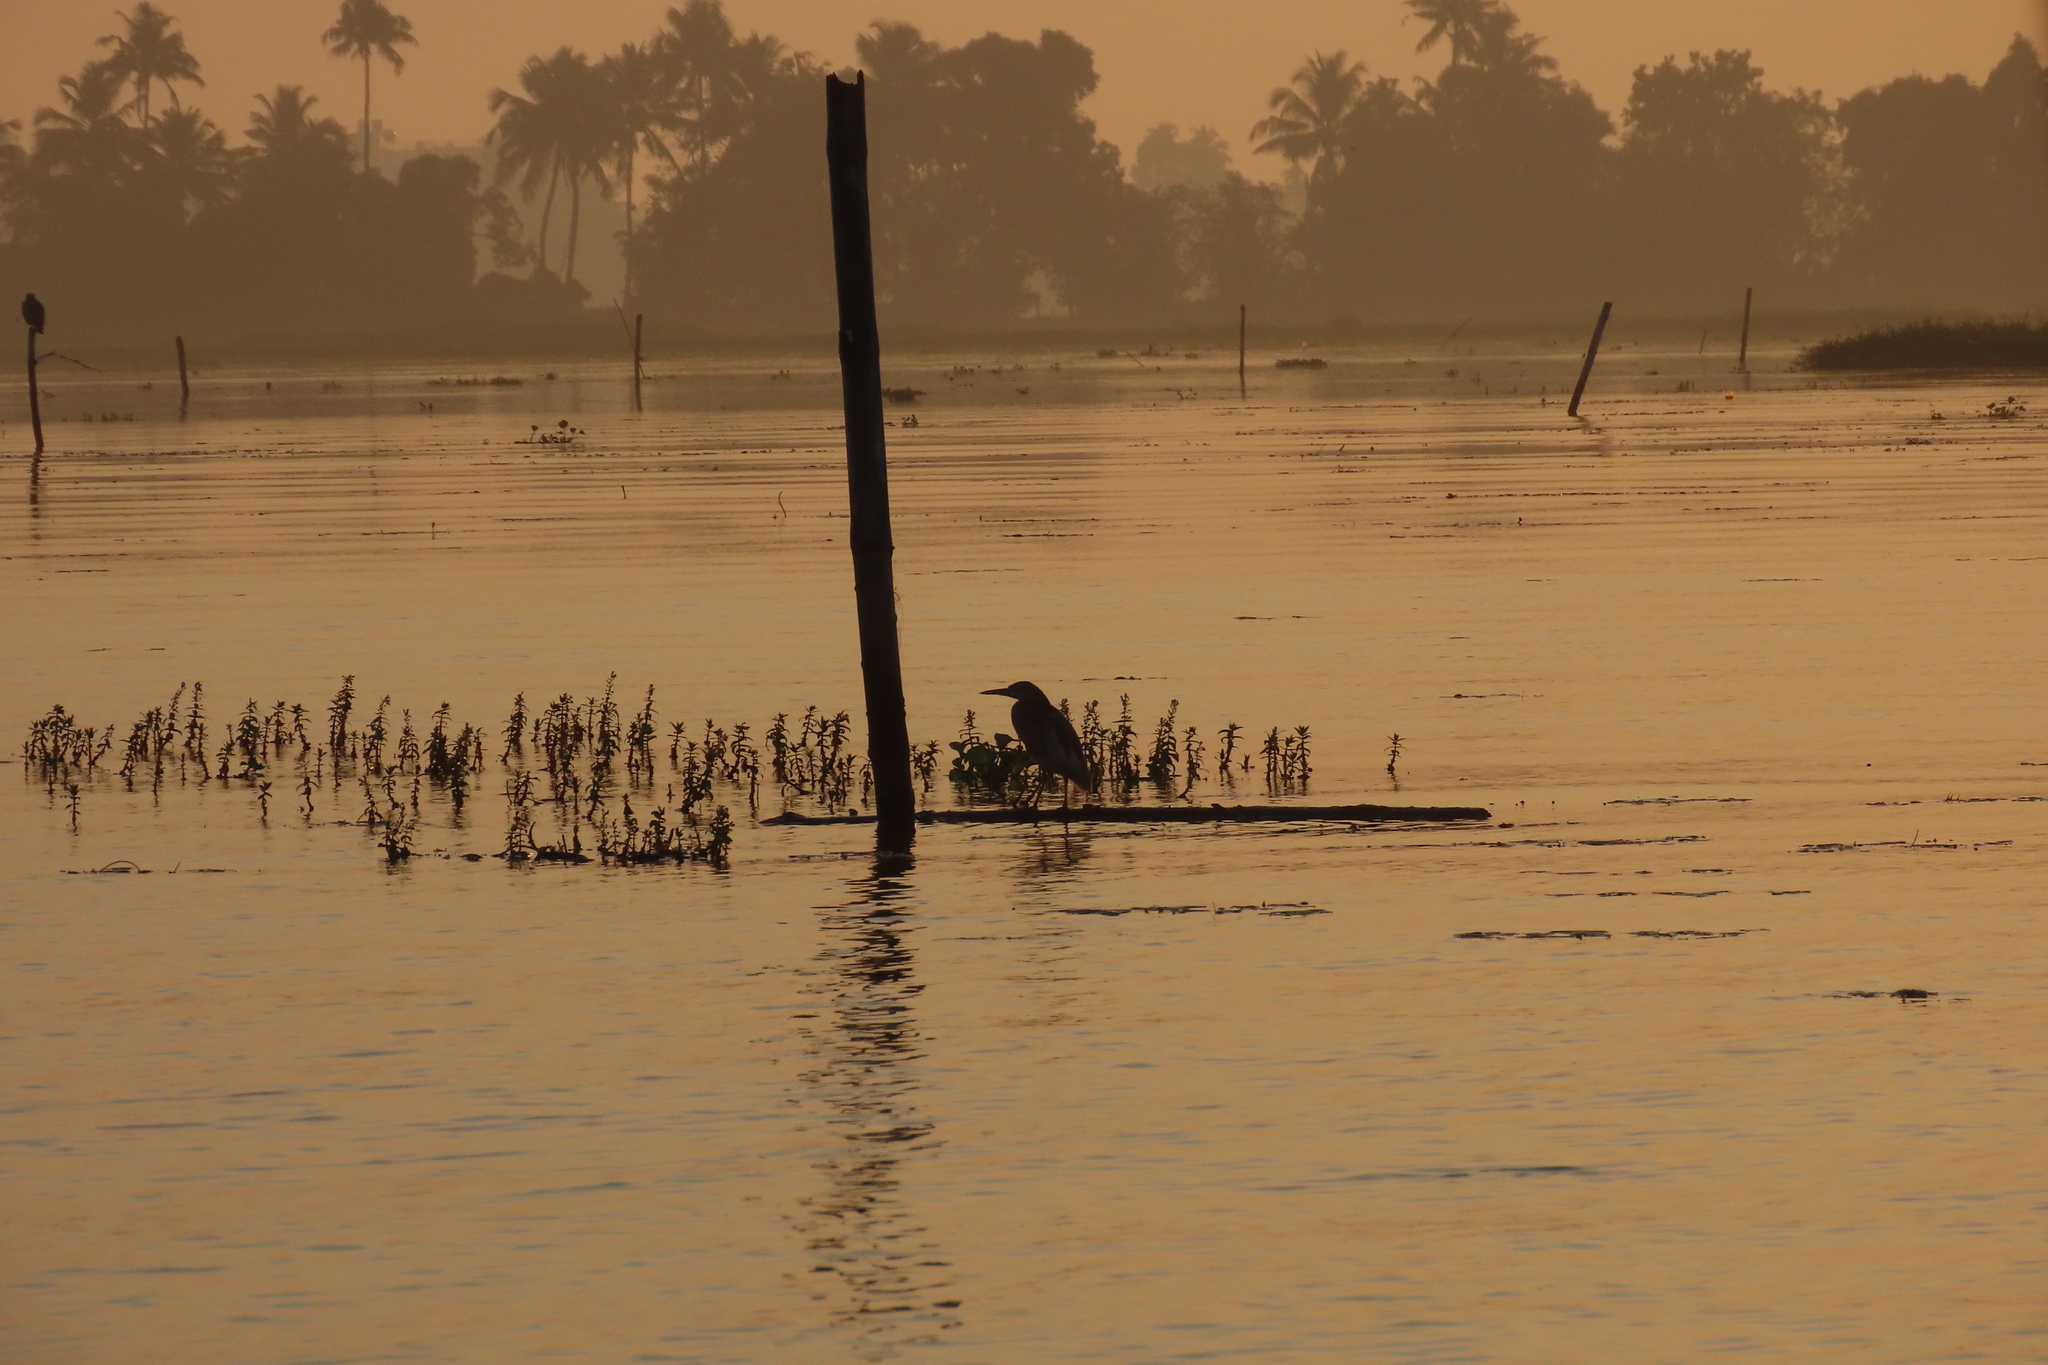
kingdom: Animalia
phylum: Chordata
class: Aves
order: Pelecaniformes
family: Ardeidae
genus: Ardeola
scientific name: Ardeola grayii
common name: Indian pond heron
